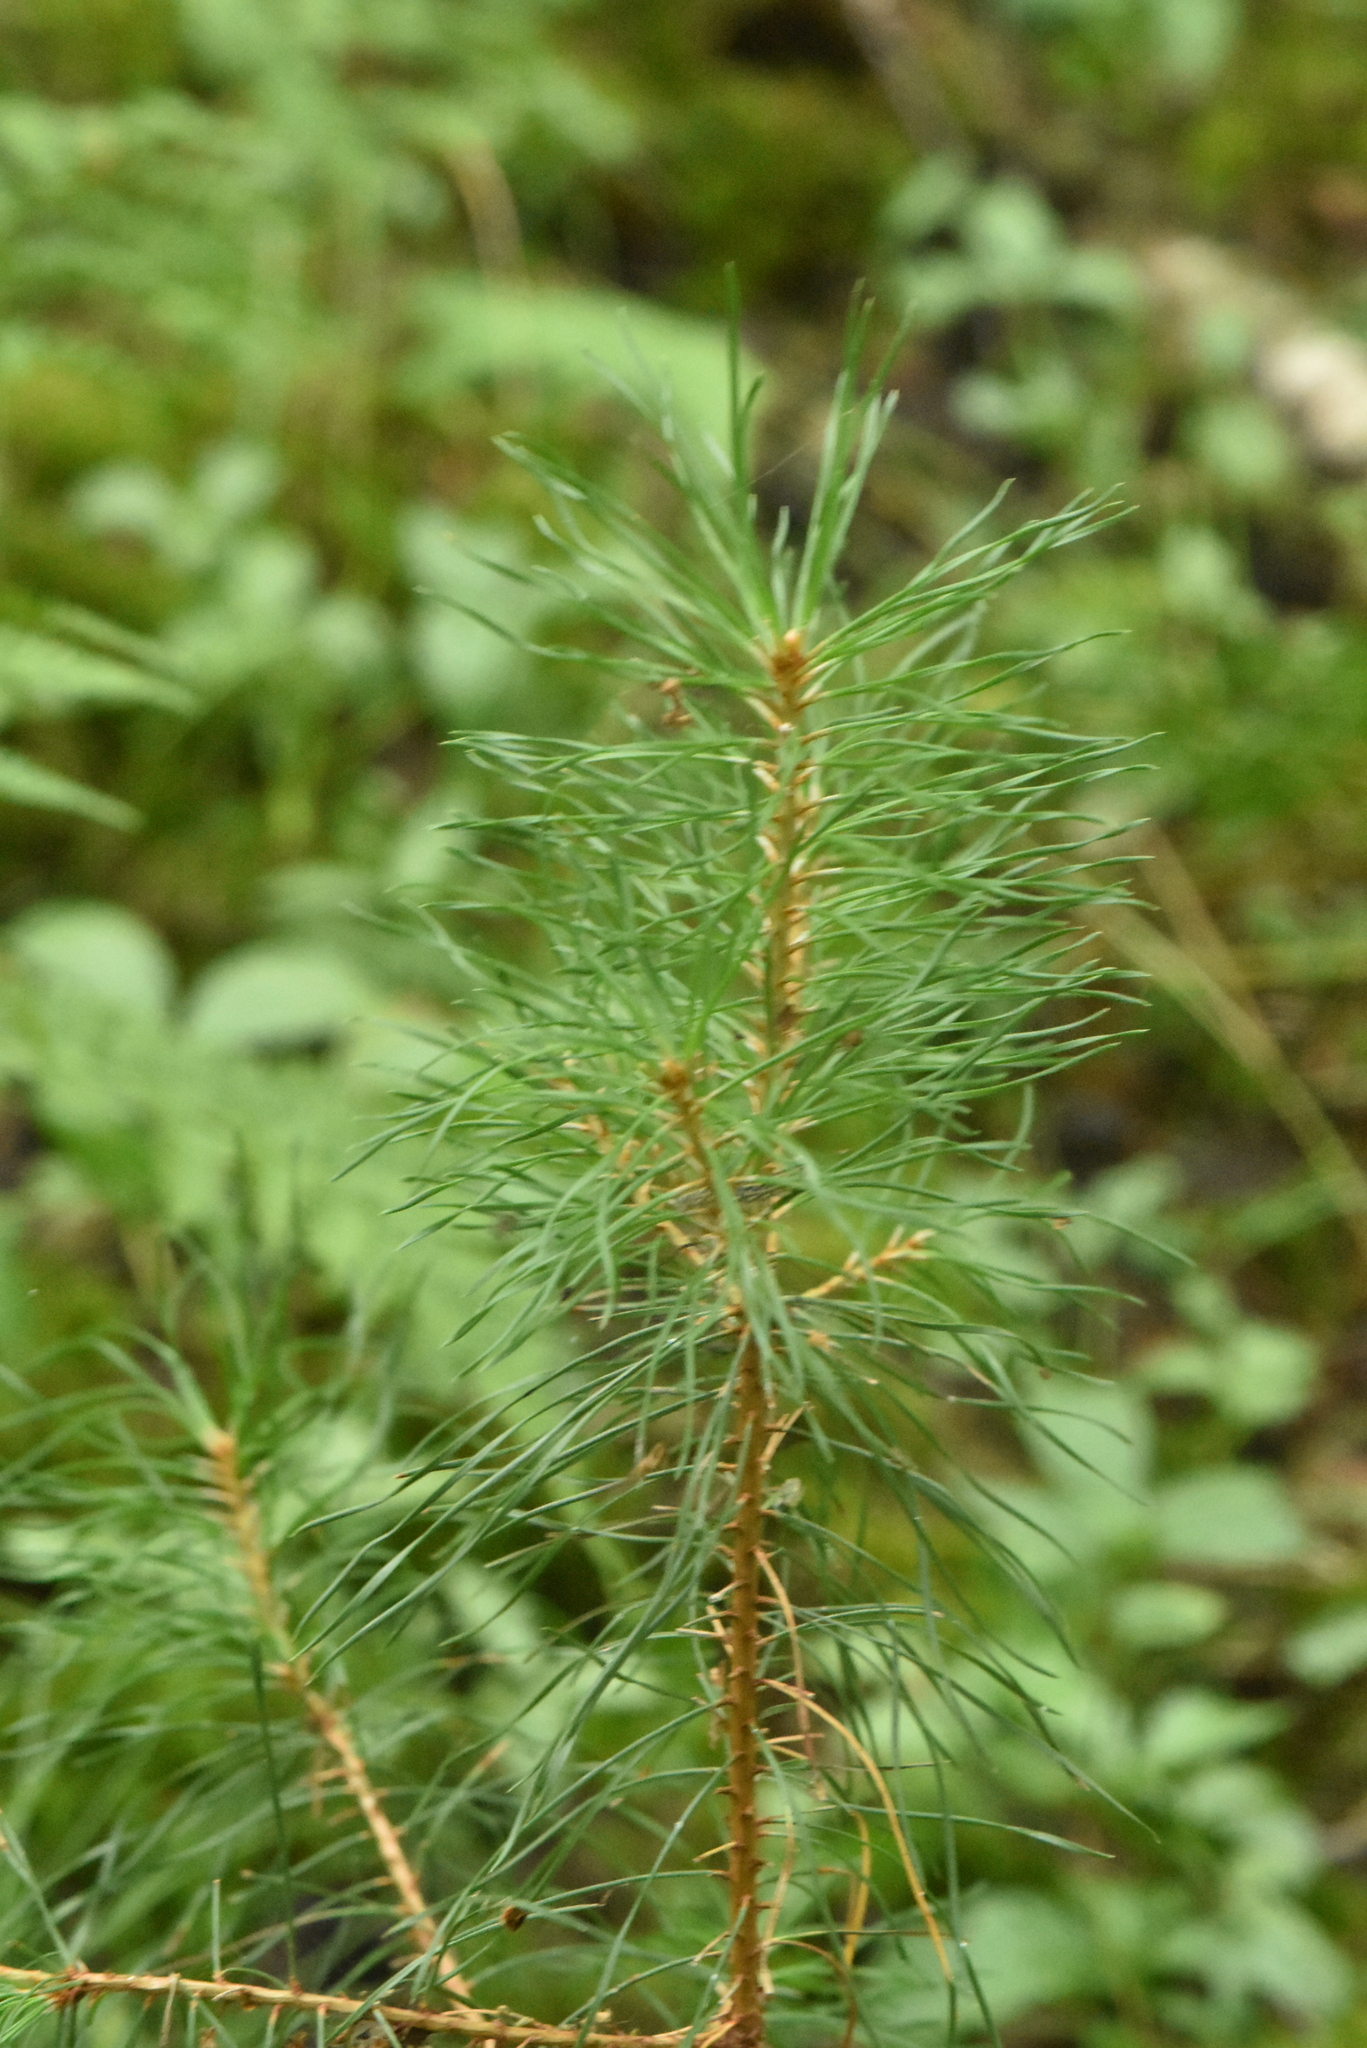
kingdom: Plantae
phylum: Tracheophyta
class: Pinopsida
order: Pinales
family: Pinaceae
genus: Pinus
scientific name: Pinus sylvestris
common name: Scots pine
